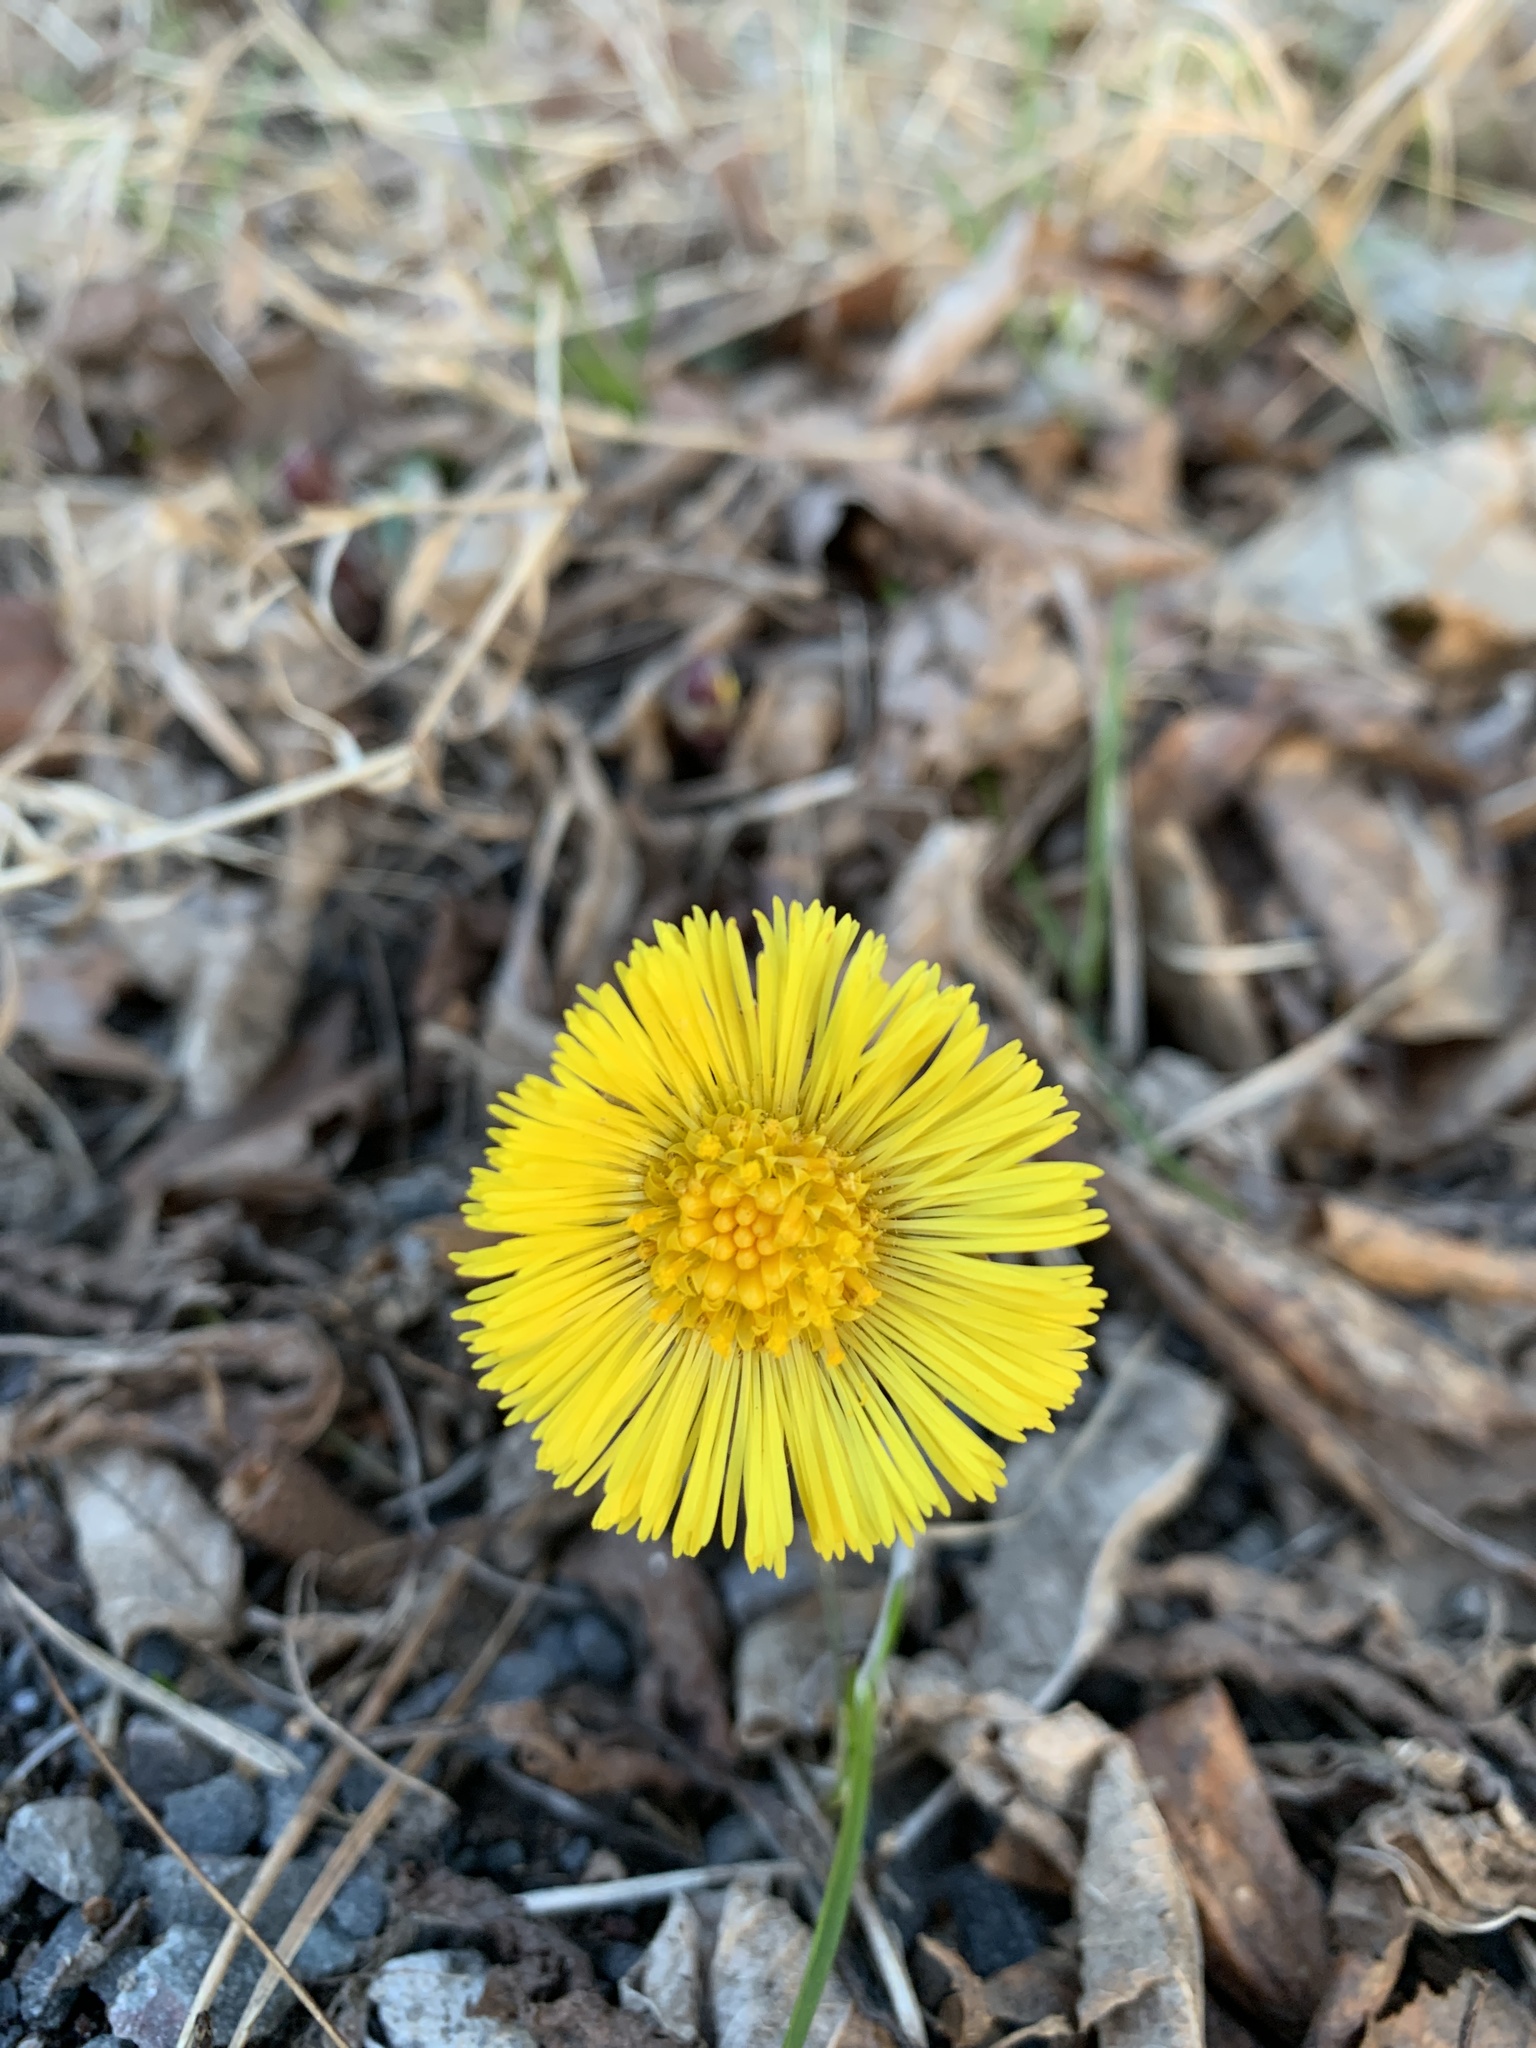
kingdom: Plantae
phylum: Tracheophyta
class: Magnoliopsida
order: Asterales
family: Asteraceae
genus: Tussilago
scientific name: Tussilago farfara
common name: Coltsfoot
